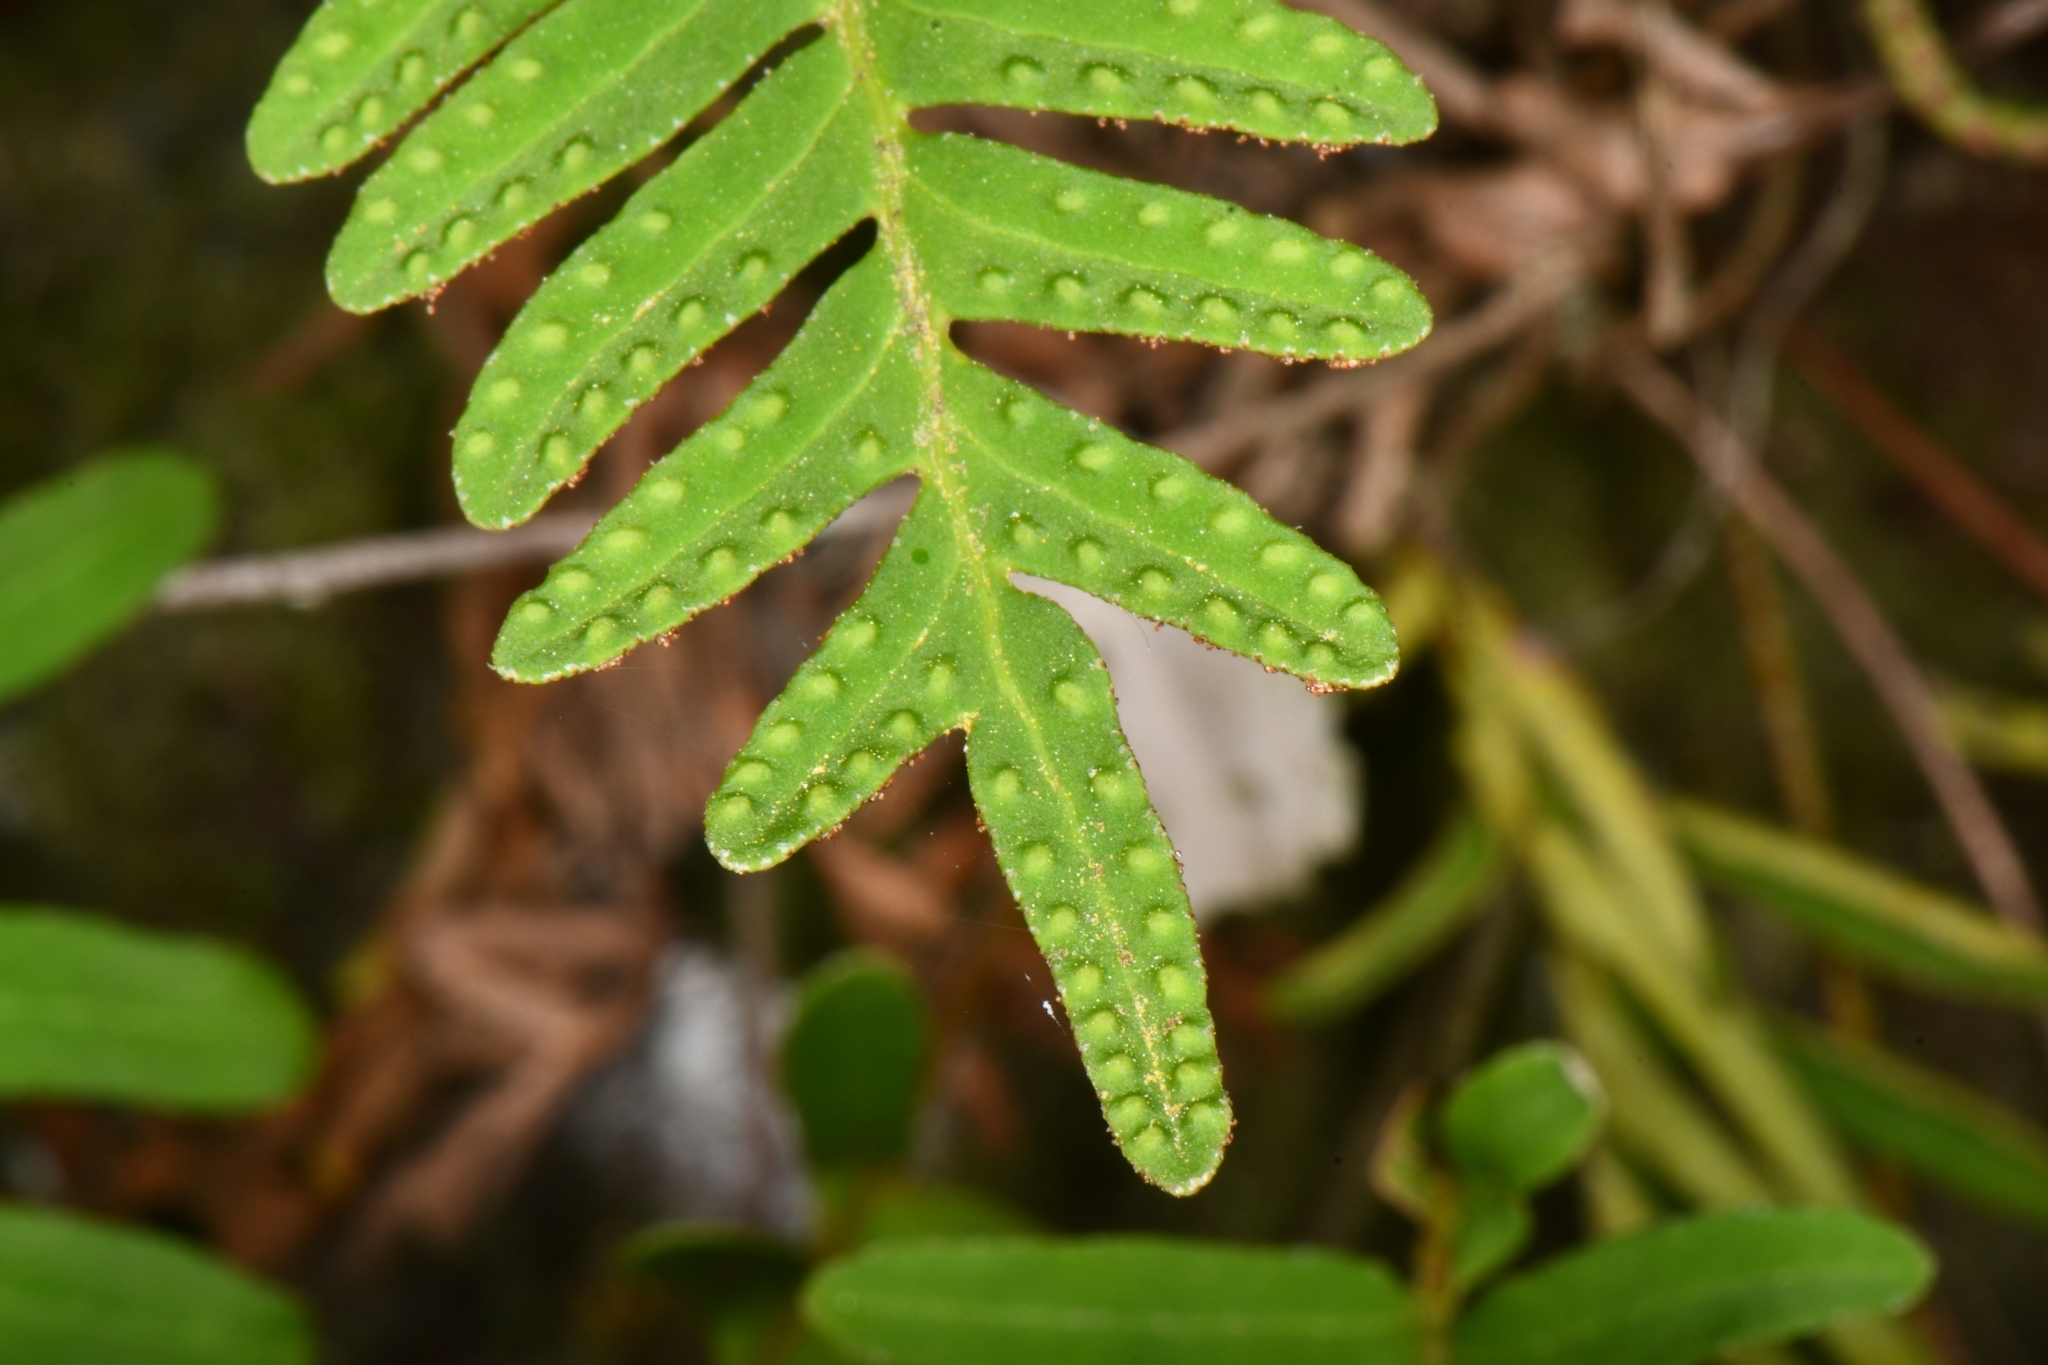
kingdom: Plantae
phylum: Tracheophyta
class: Polypodiopsida
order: Polypodiales
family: Polypodiaceae
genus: Pleopeltis
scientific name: Pleopeltis michauxiana
